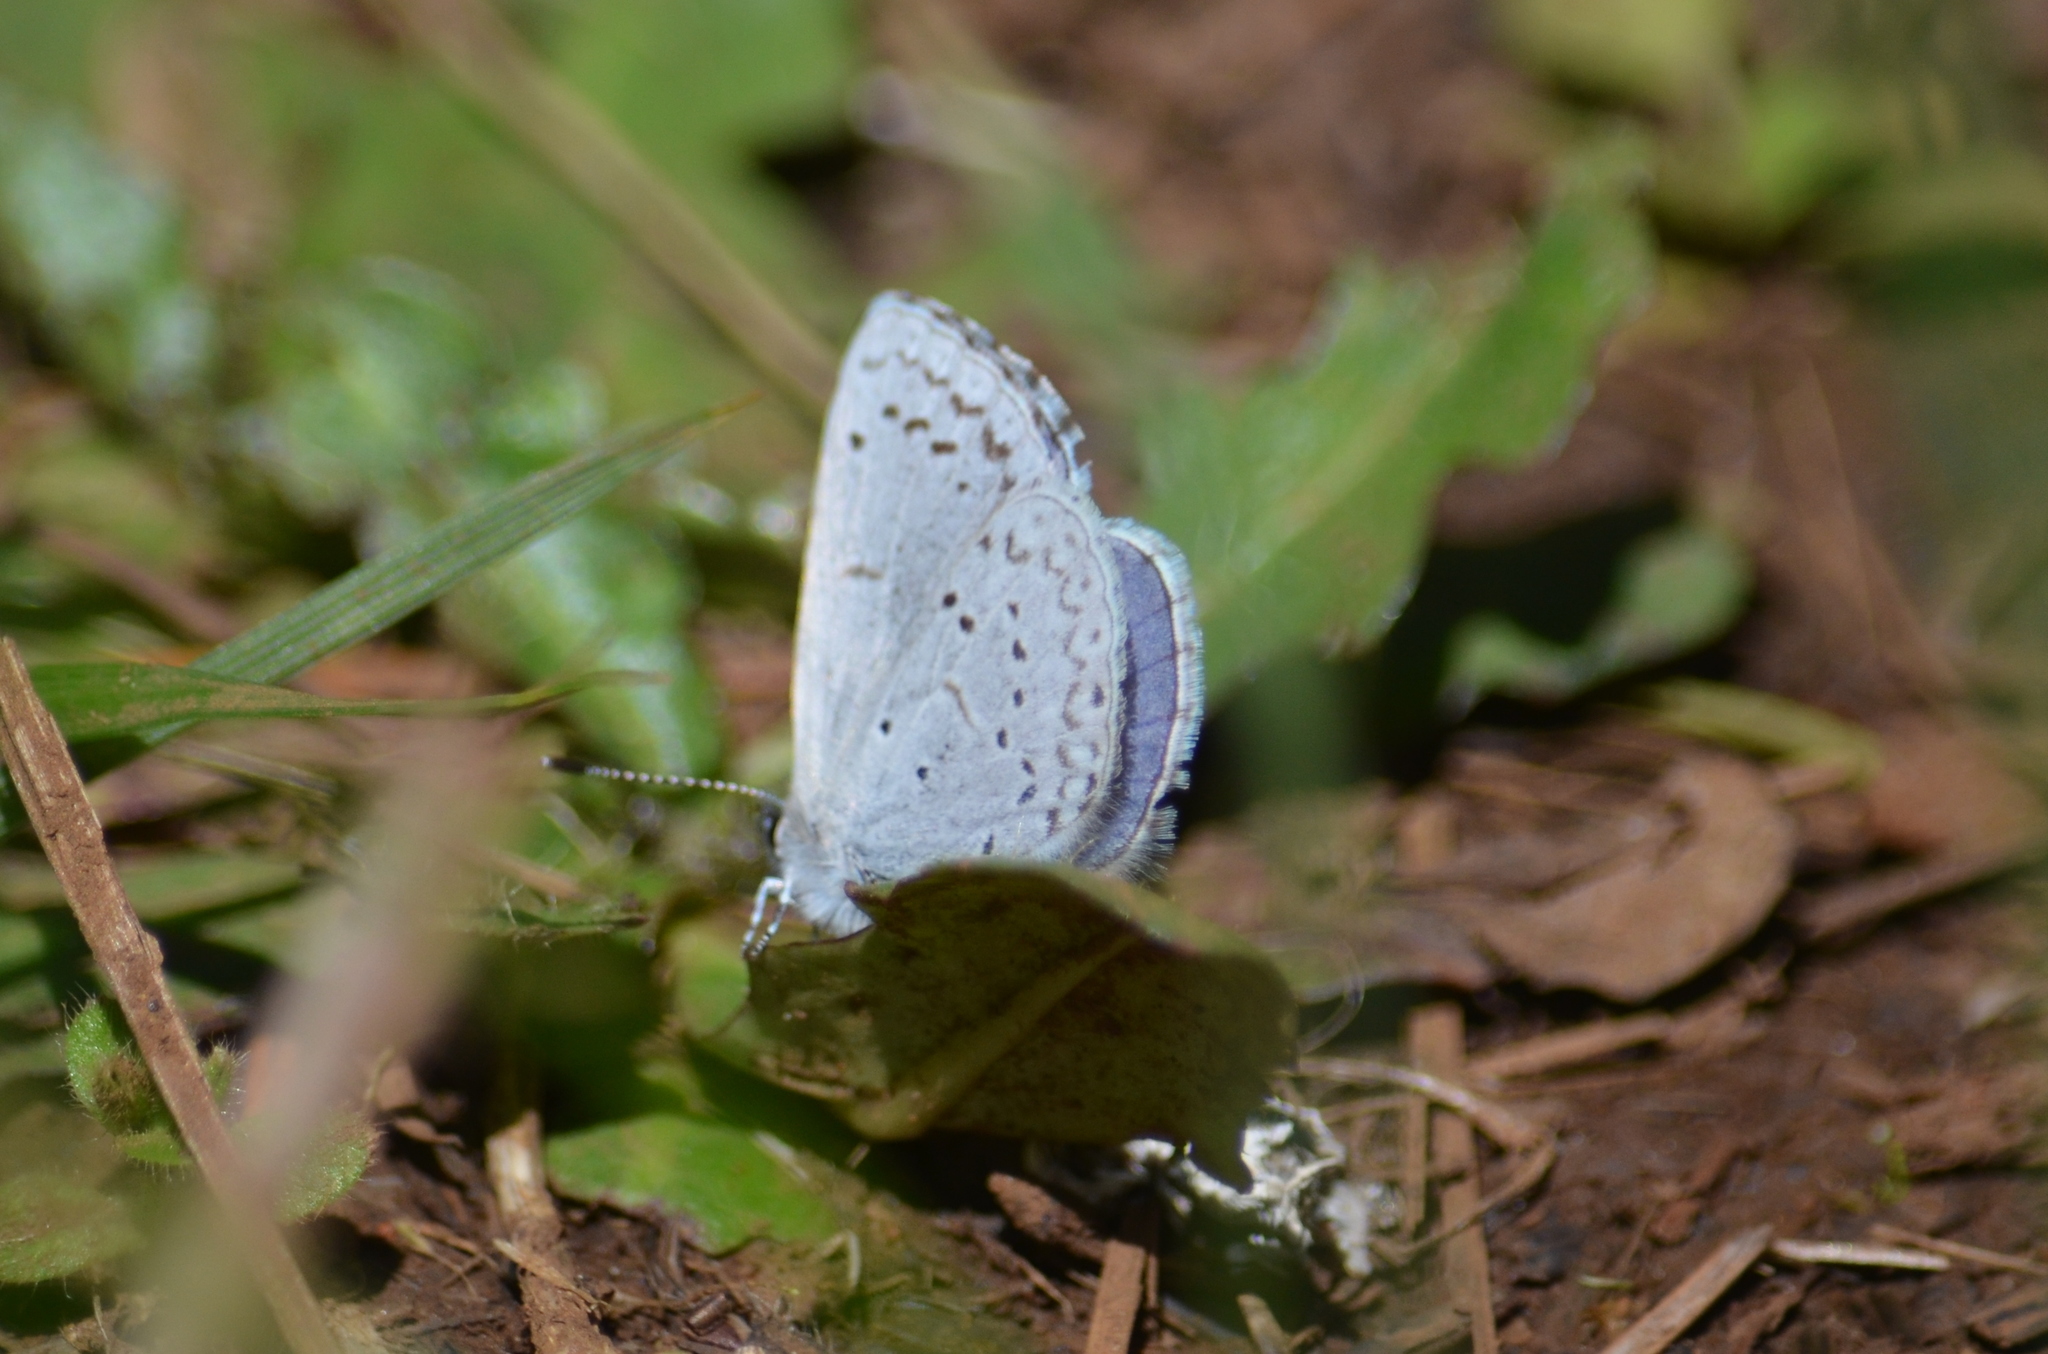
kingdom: Animalia
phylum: Arthropoda
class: Insecta
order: Lepidoptera
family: Lycaenidae
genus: Celastrina
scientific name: Celastrina ladon
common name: Spring azure
